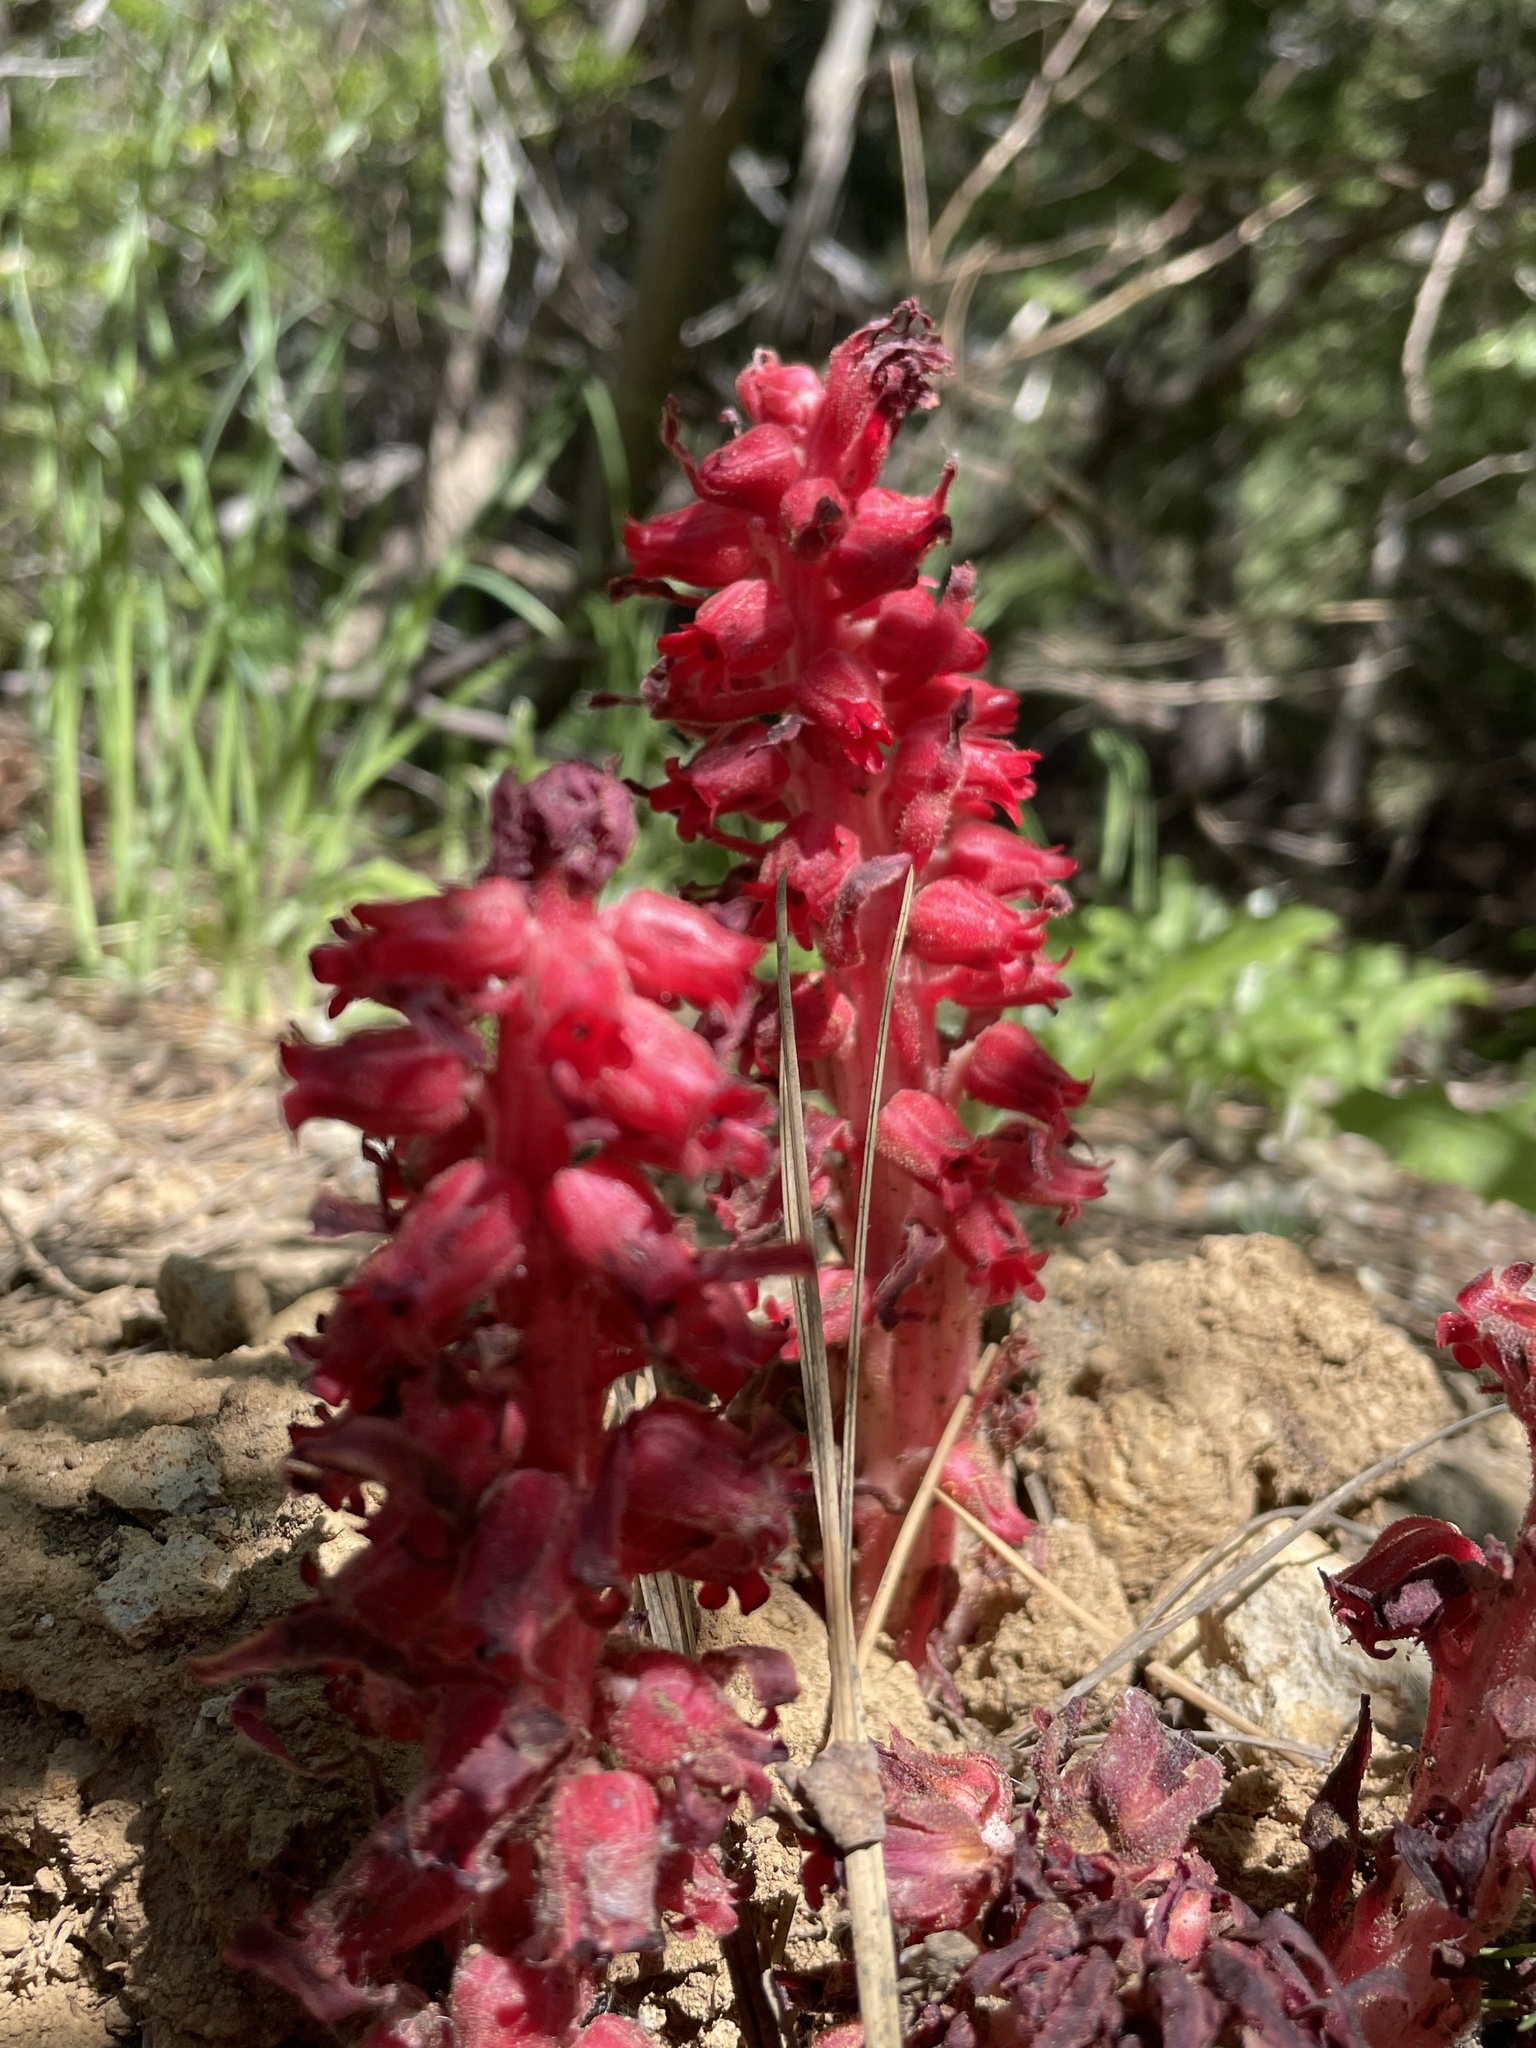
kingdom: Plantae
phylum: Tracheophyta
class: Magnoliopsida
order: Ericales
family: Ericaceae
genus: Sarcodes
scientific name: Sarcodes sanguinea
